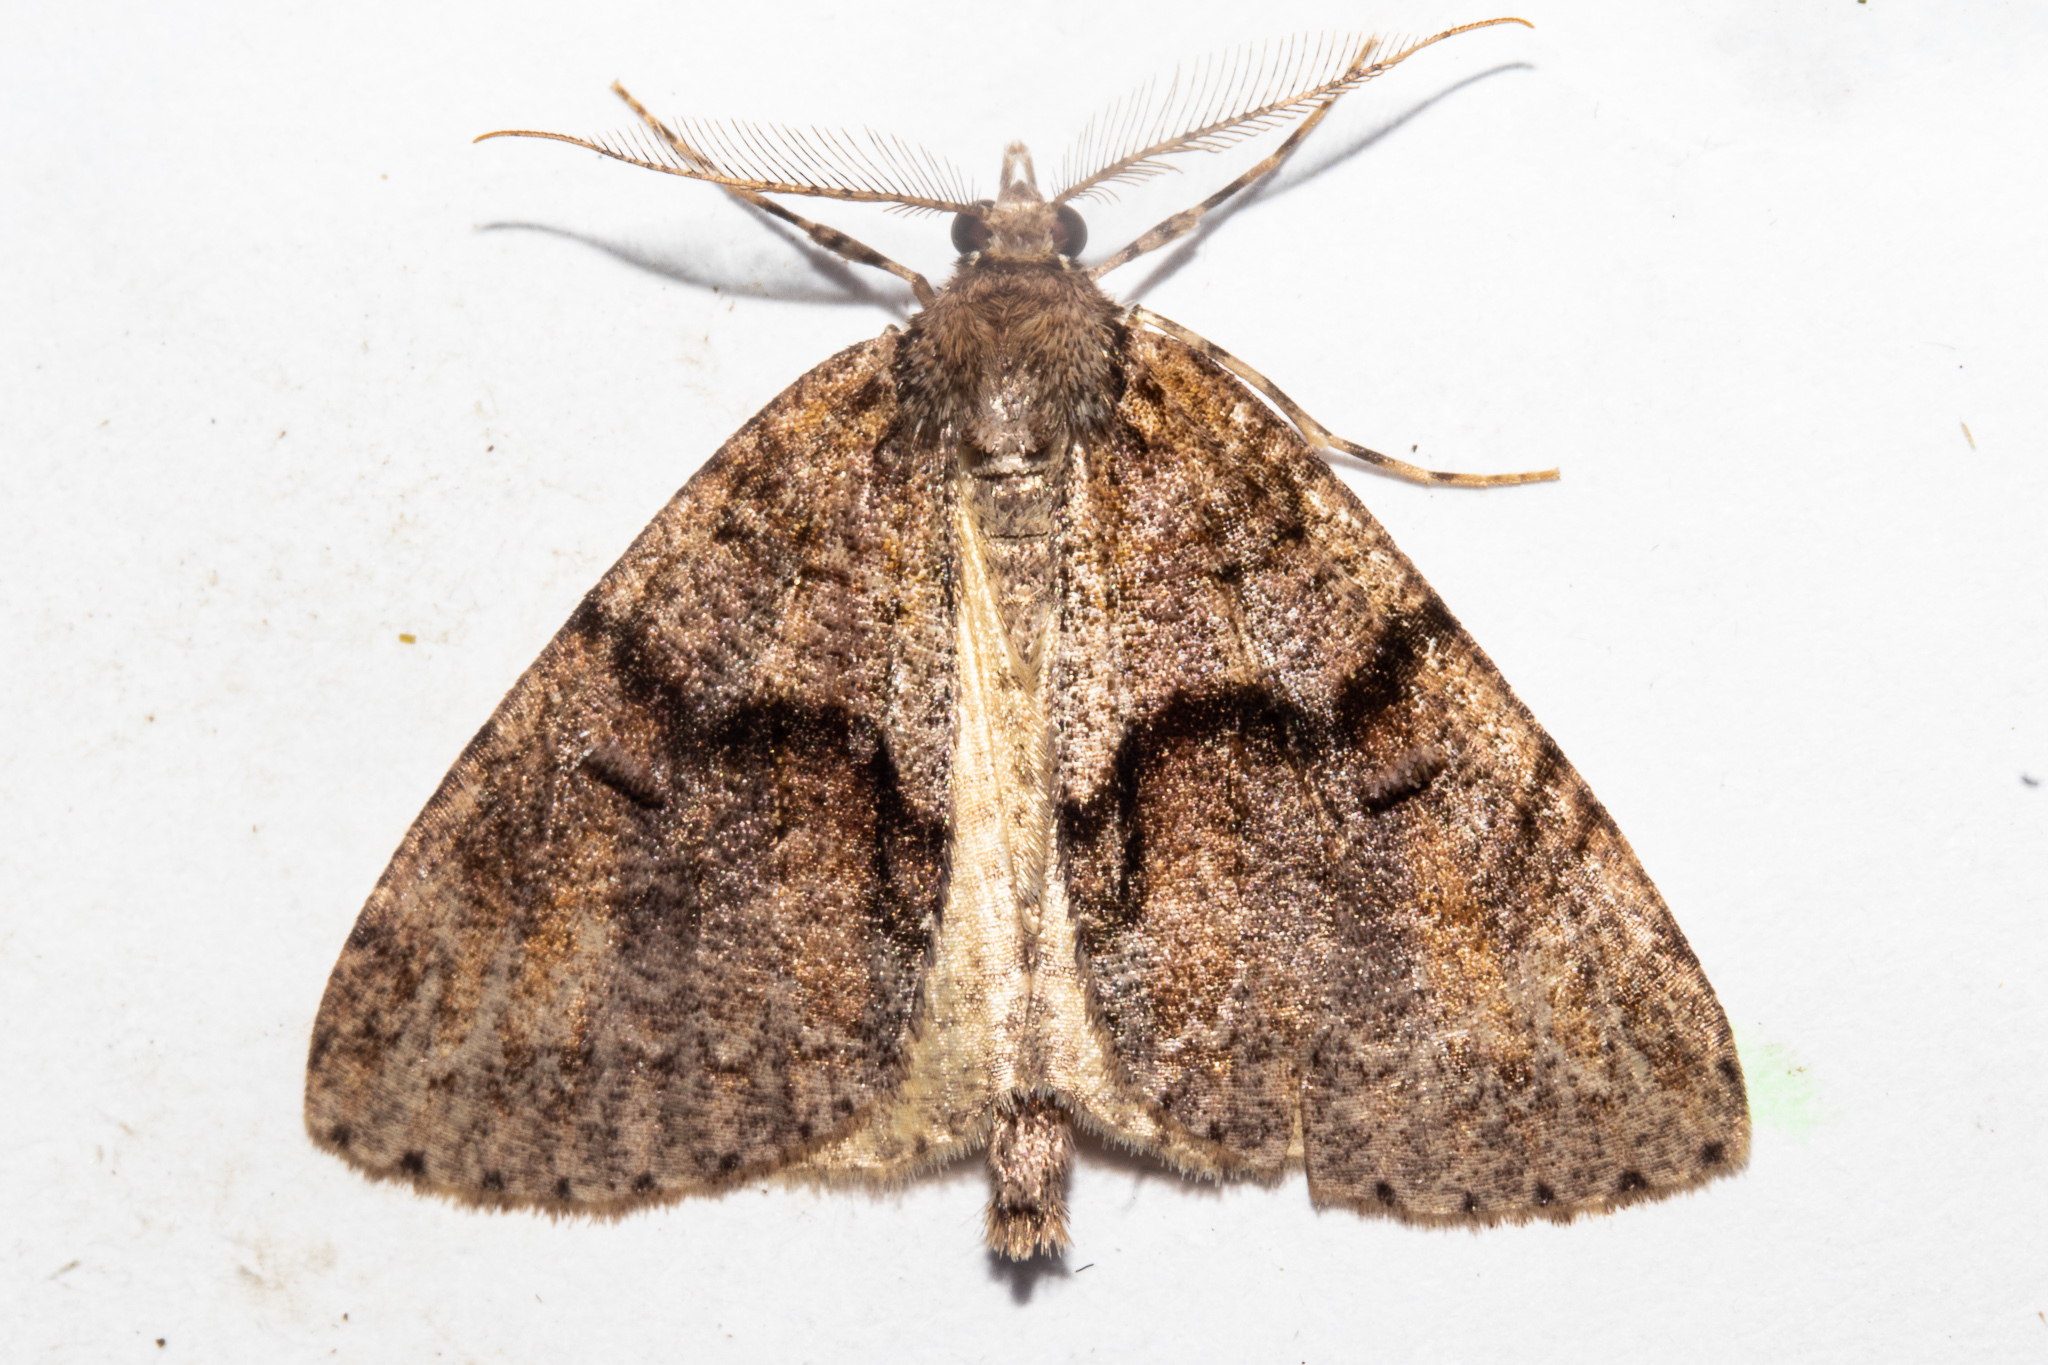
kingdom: Animalia
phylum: Arthropoda
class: Insecta
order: Lepidoptera
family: Geometridae
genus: Pseudocoremia
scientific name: Pseudocoremia suavis
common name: Common forest looper
